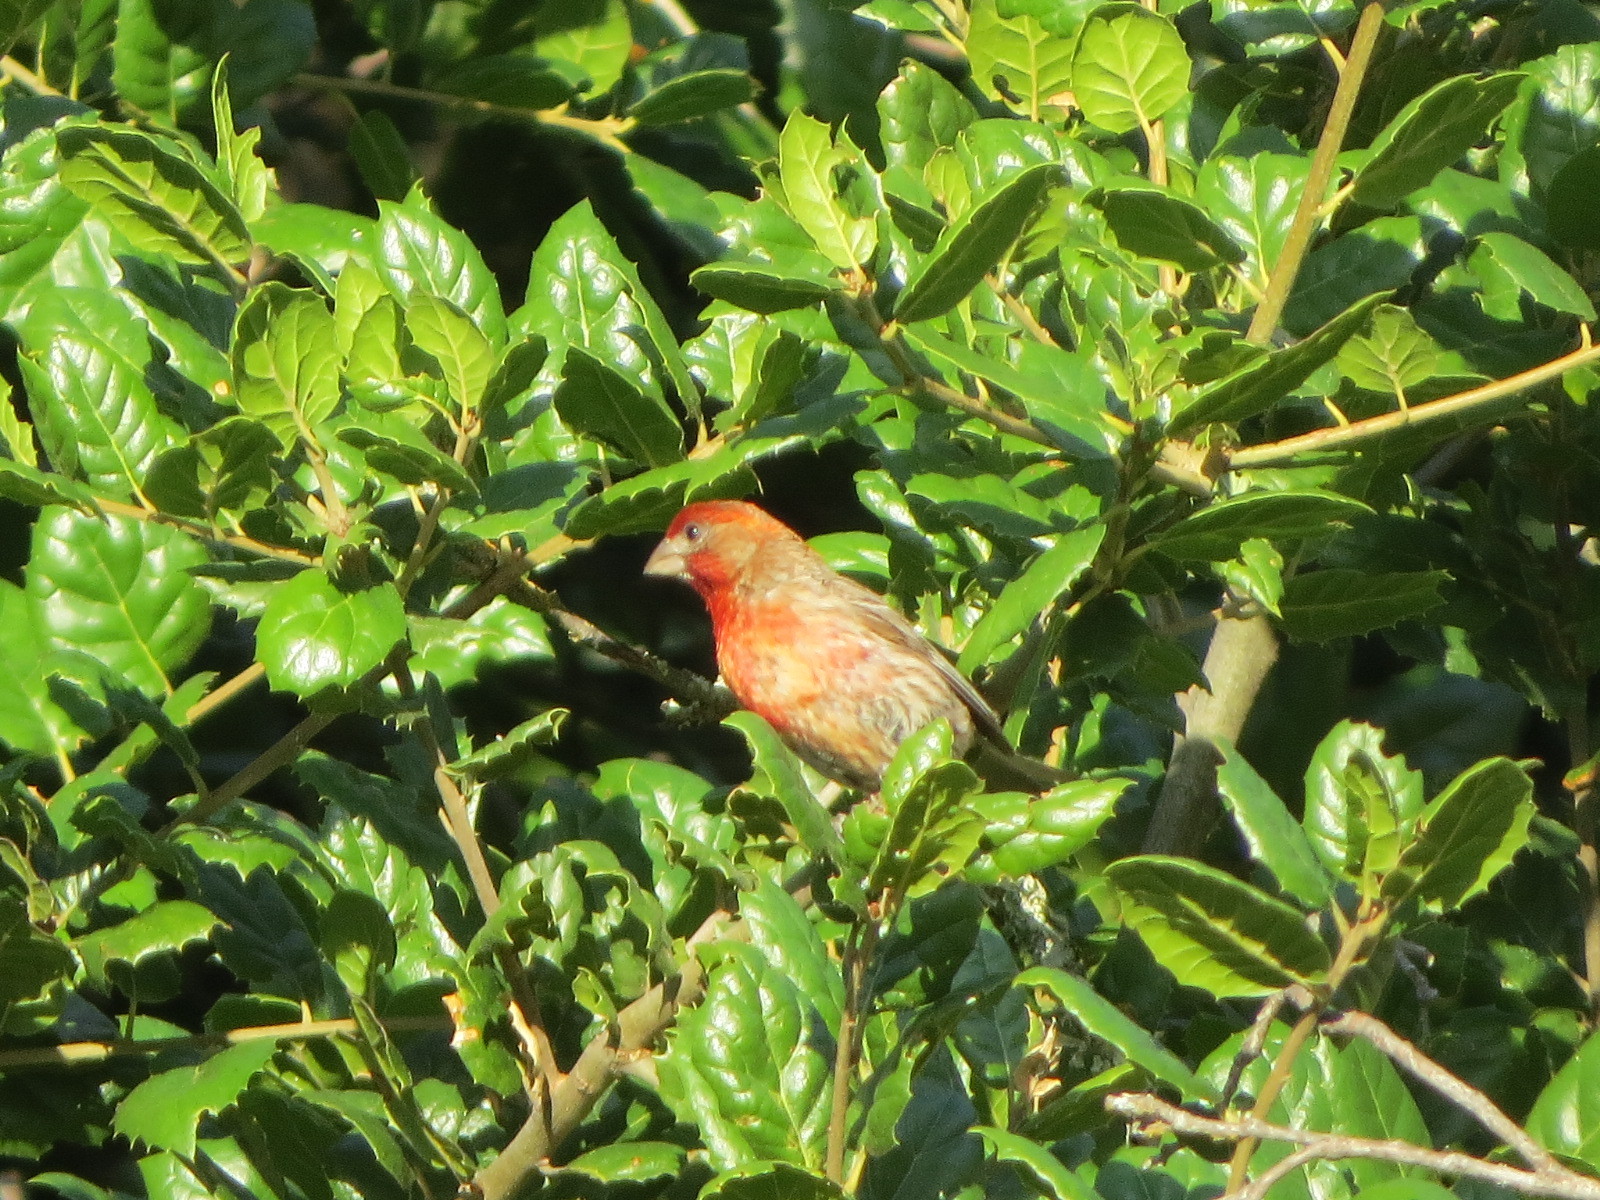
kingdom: Animalia
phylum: Chordata
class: Aves
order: Passeriformes
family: Fringillidae
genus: Haemorhous
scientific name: Haemorhous mexicanus
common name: House finch
